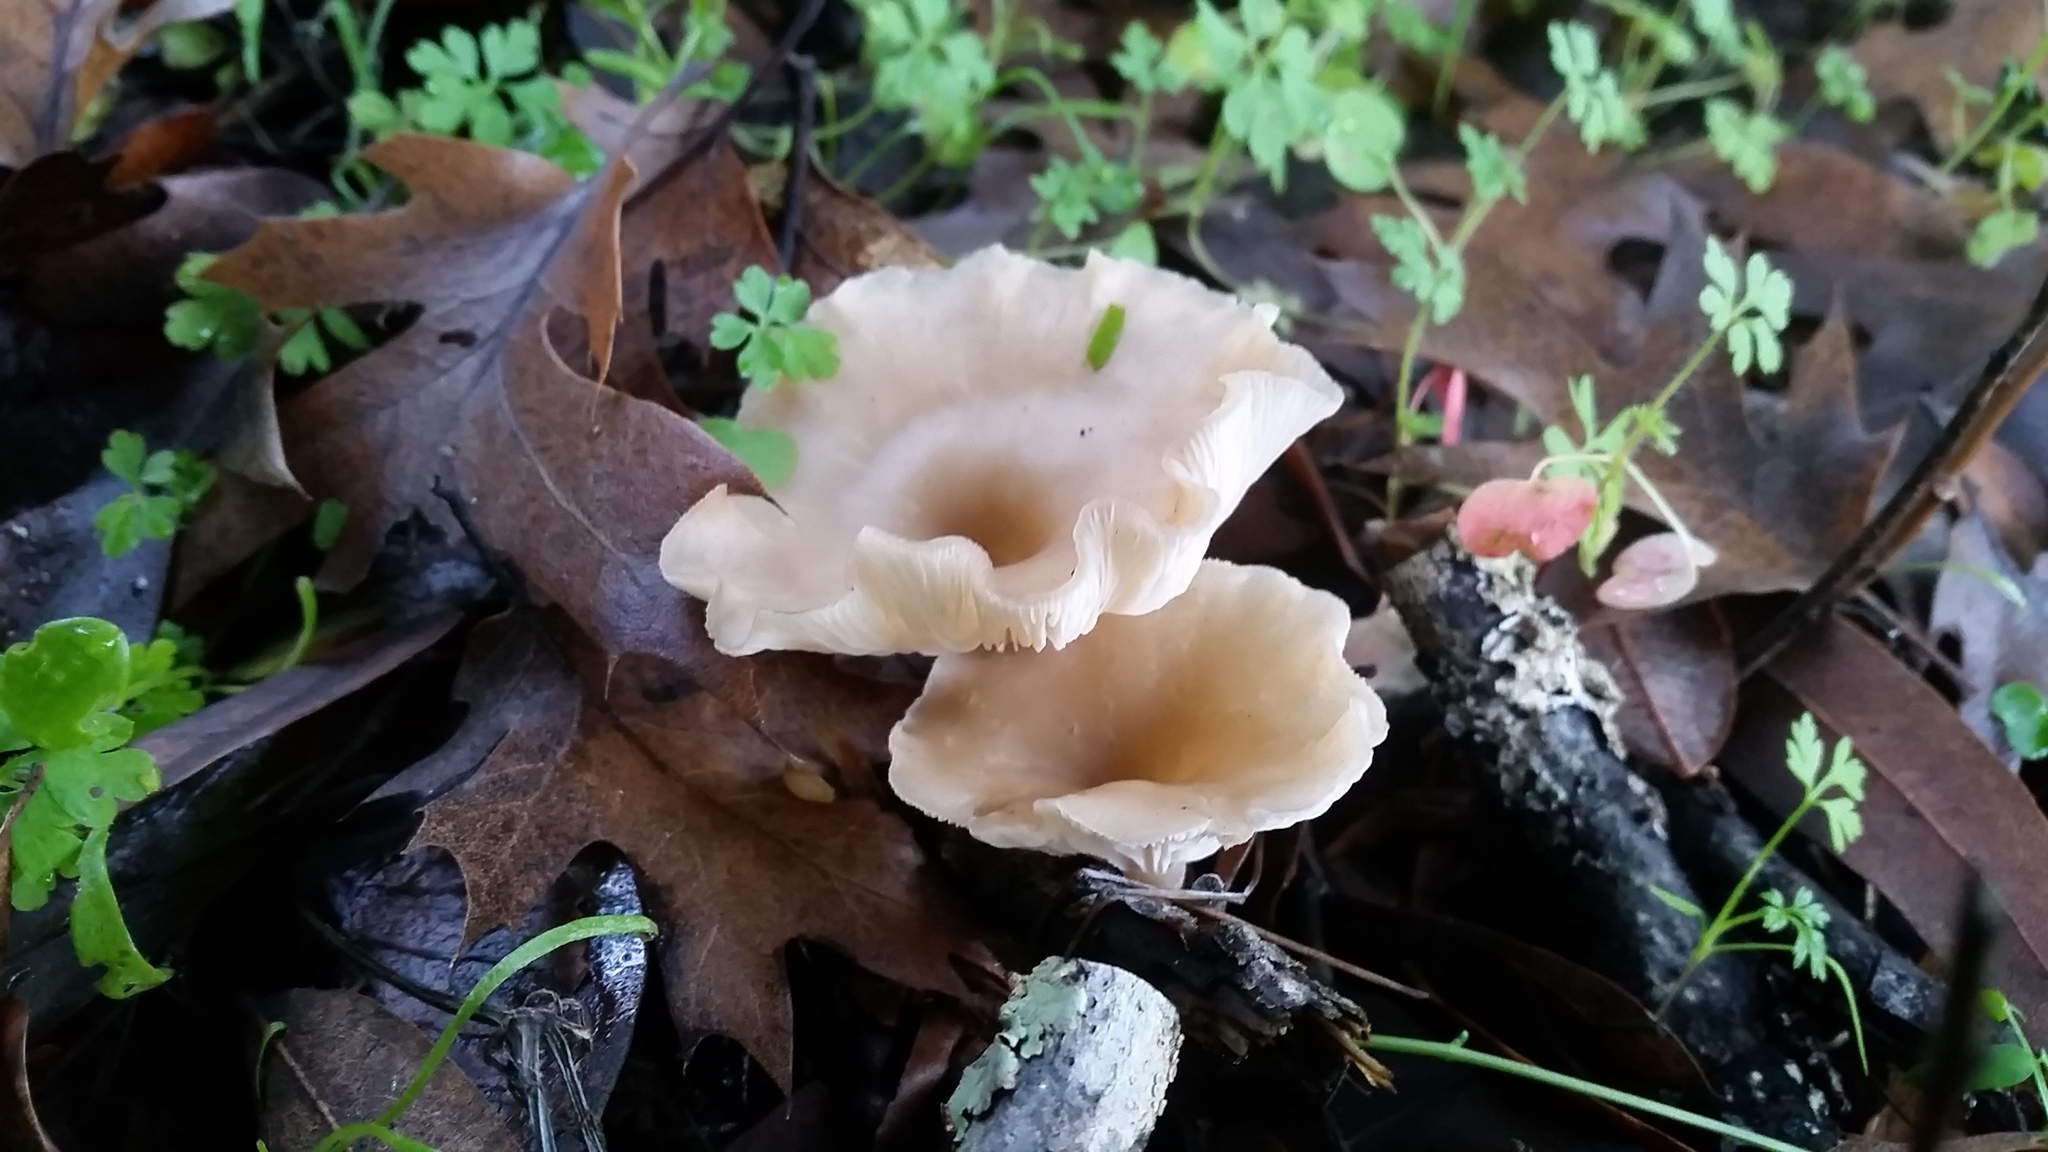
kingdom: Fungi
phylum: Basidiomycota
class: Agaricomycetes
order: Agaricales
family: Tricholomataceae
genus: Clitocybe
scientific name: Clitocybe fragrans
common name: Fragrant funnel
